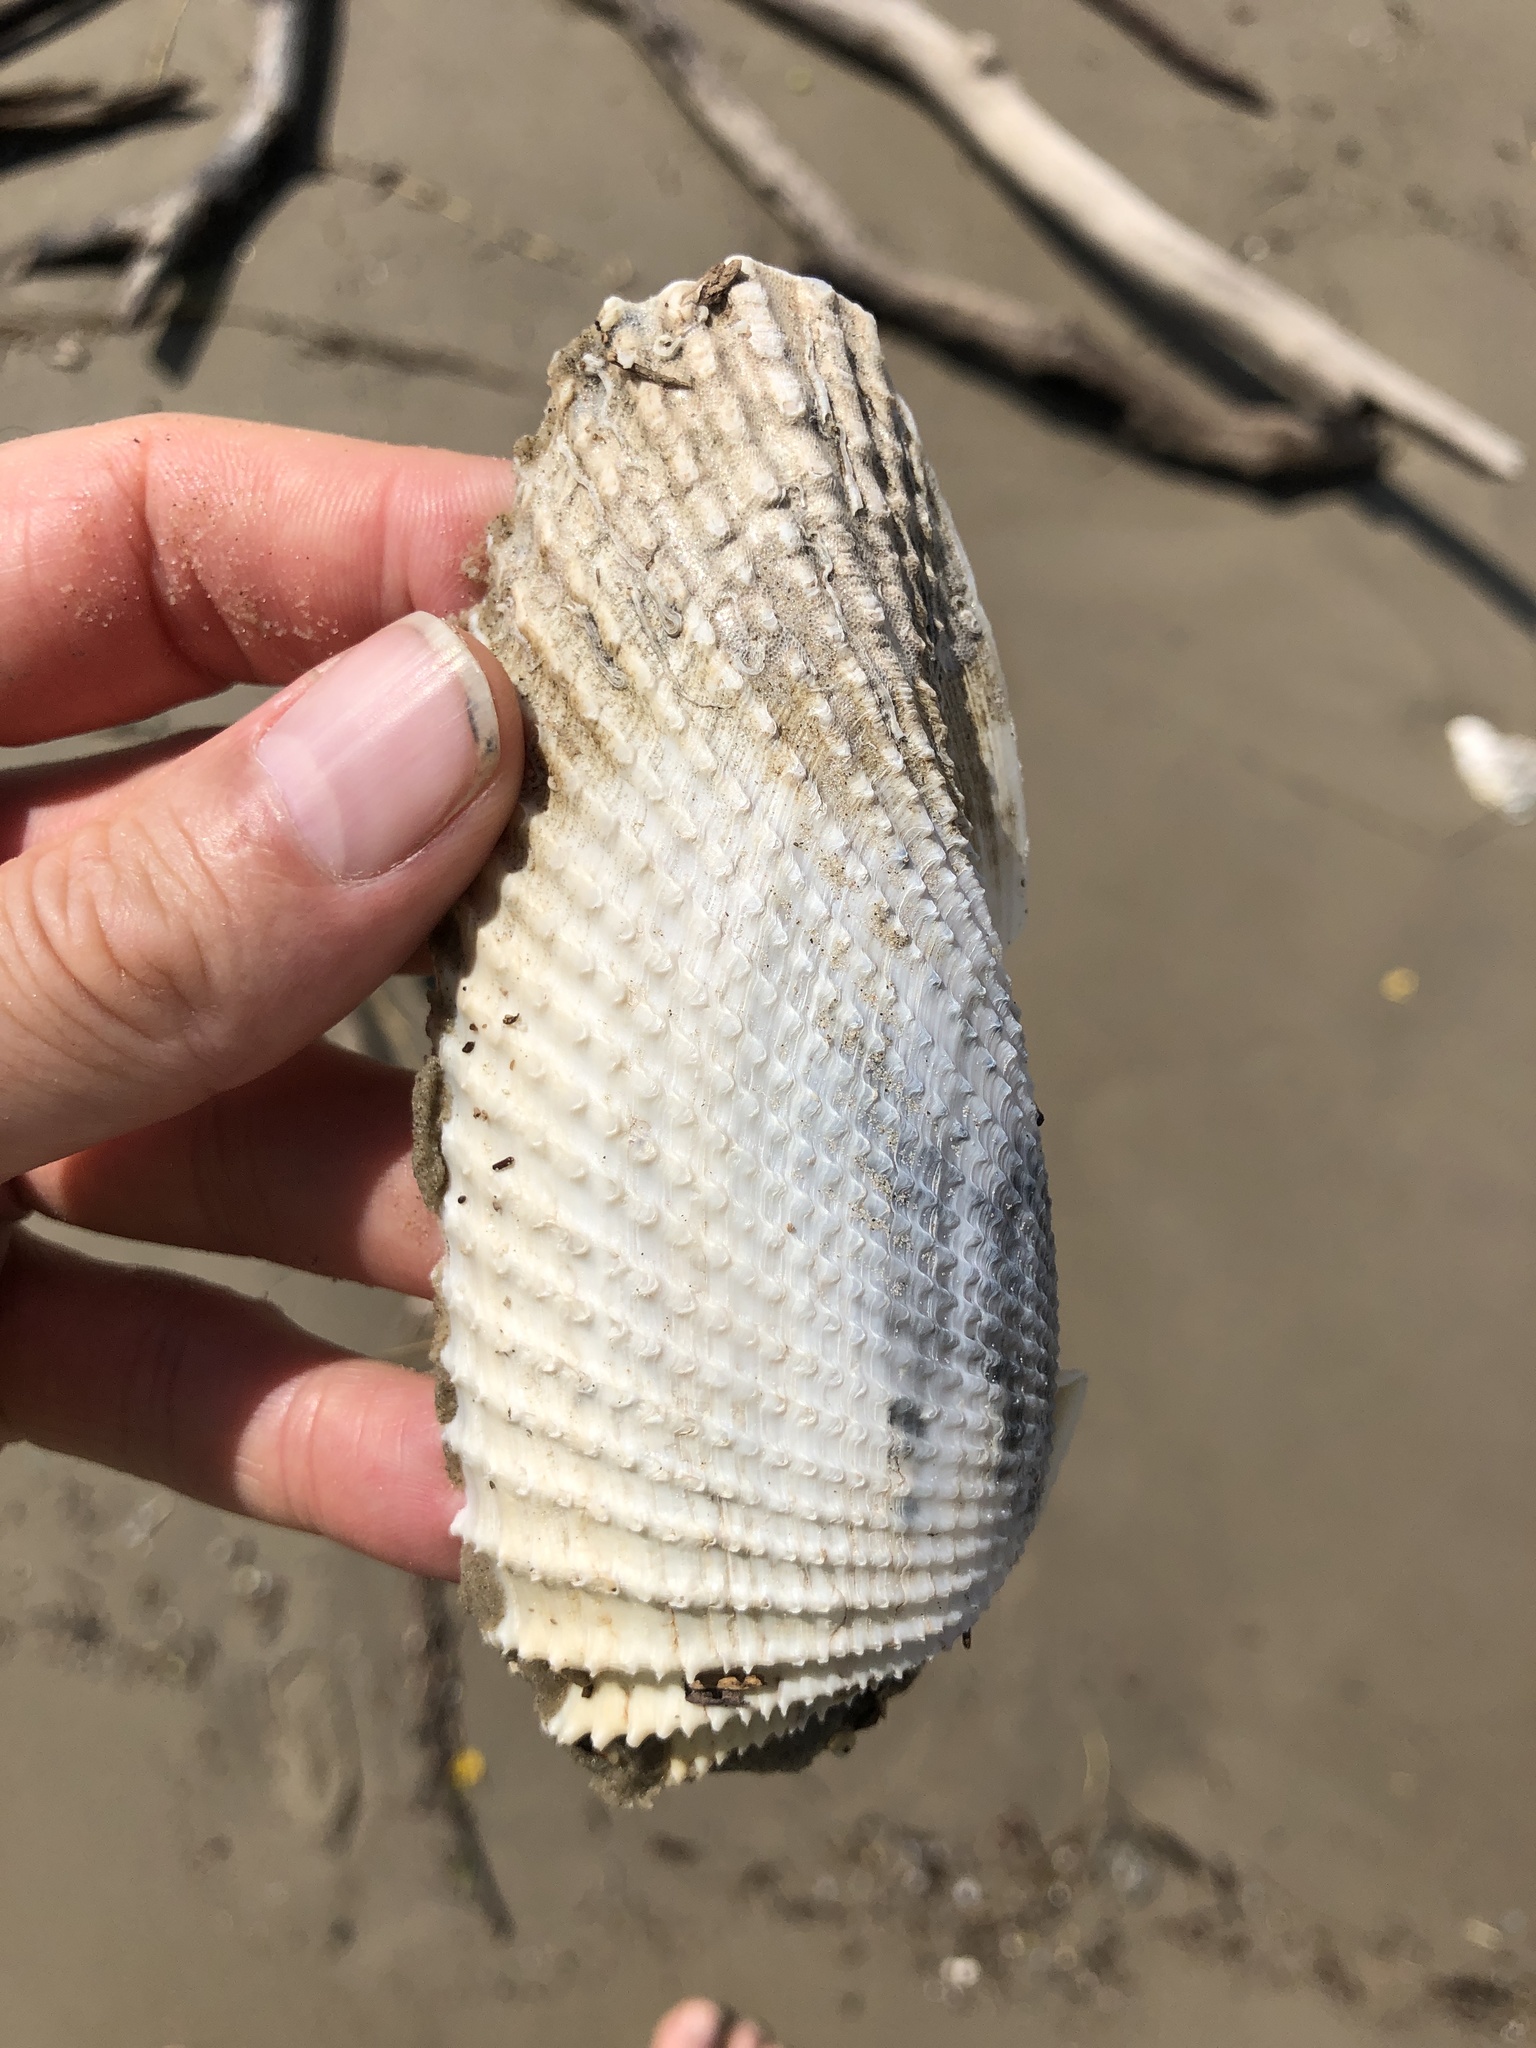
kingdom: Animalia
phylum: Mollusca
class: Bivalvia
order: Myida
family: Pholadidae
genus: Cyrtopleura
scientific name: Cyrtopleura costata
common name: Angel wing
